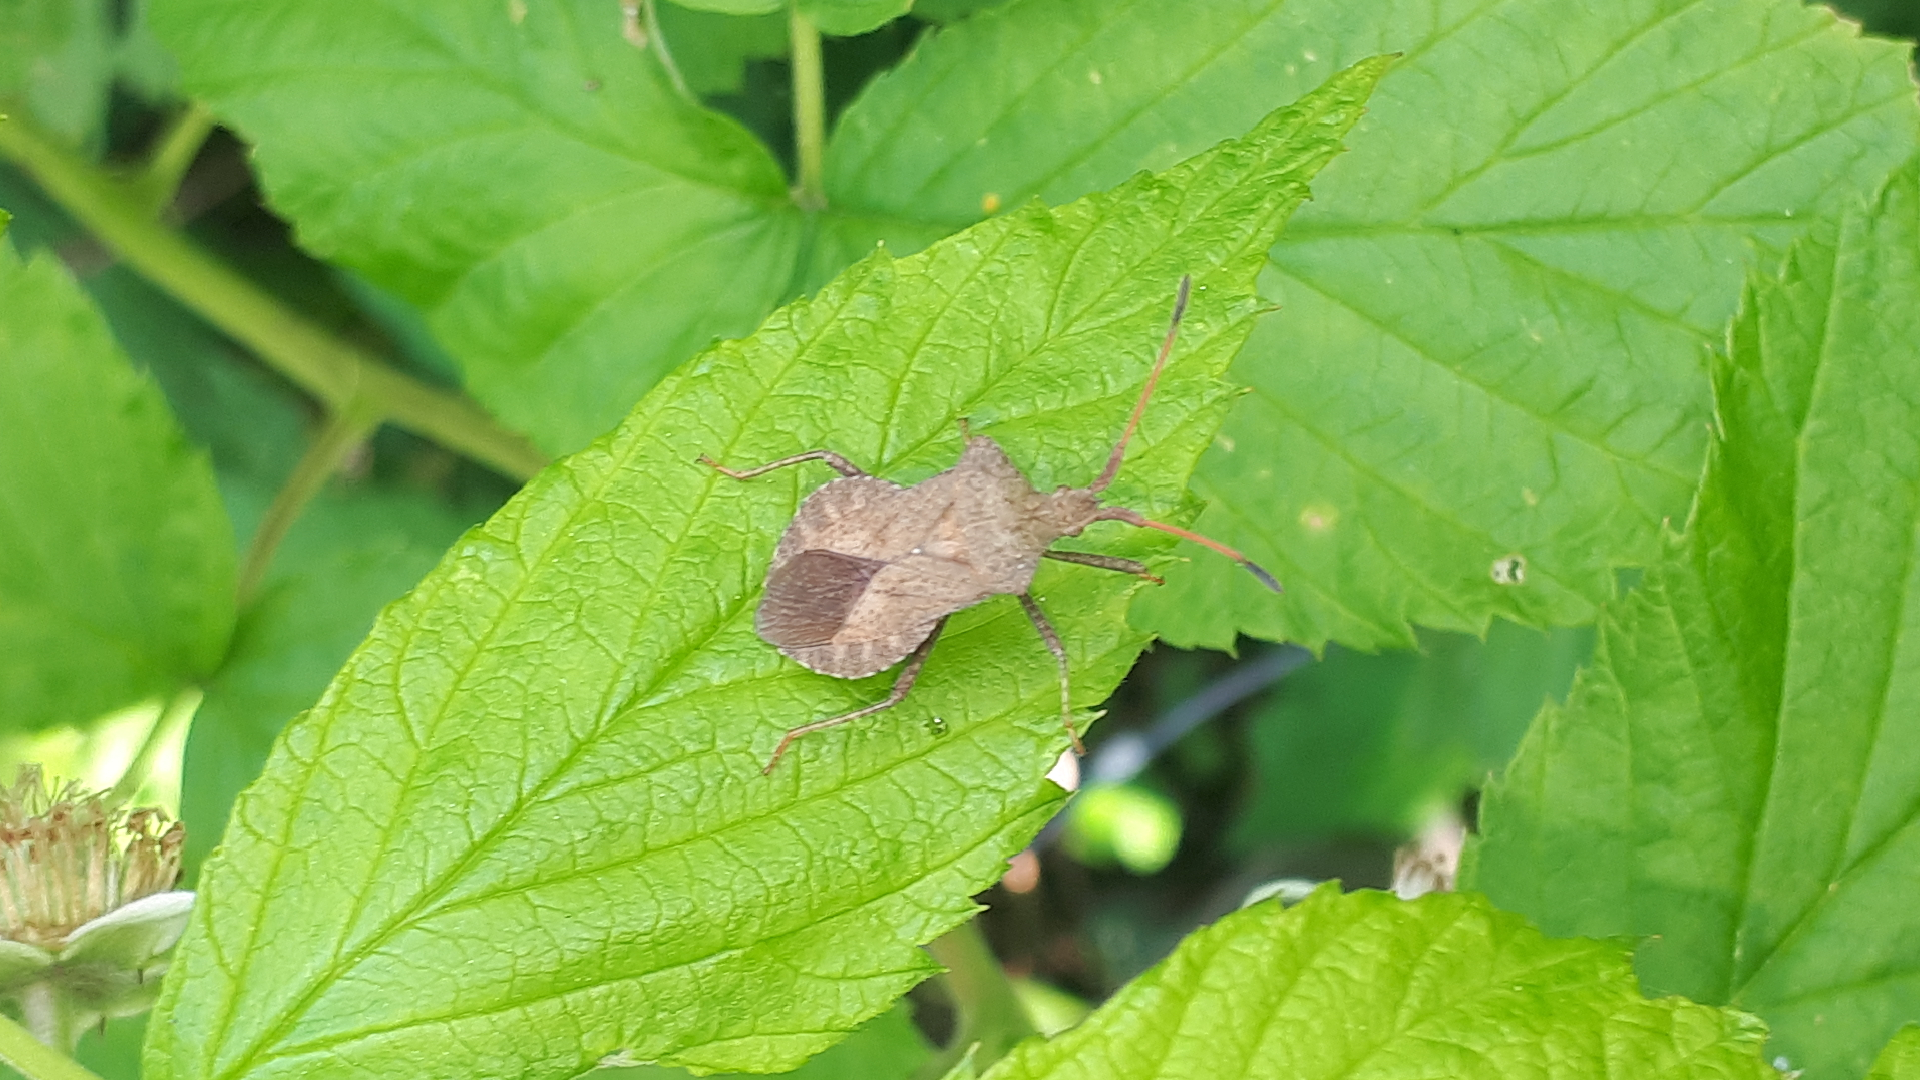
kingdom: Animalia
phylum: Arthropoda
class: Insecta
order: Hemiptera
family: Coreidae
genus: Coreus
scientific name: Coreus marginatus
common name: Dock bug
